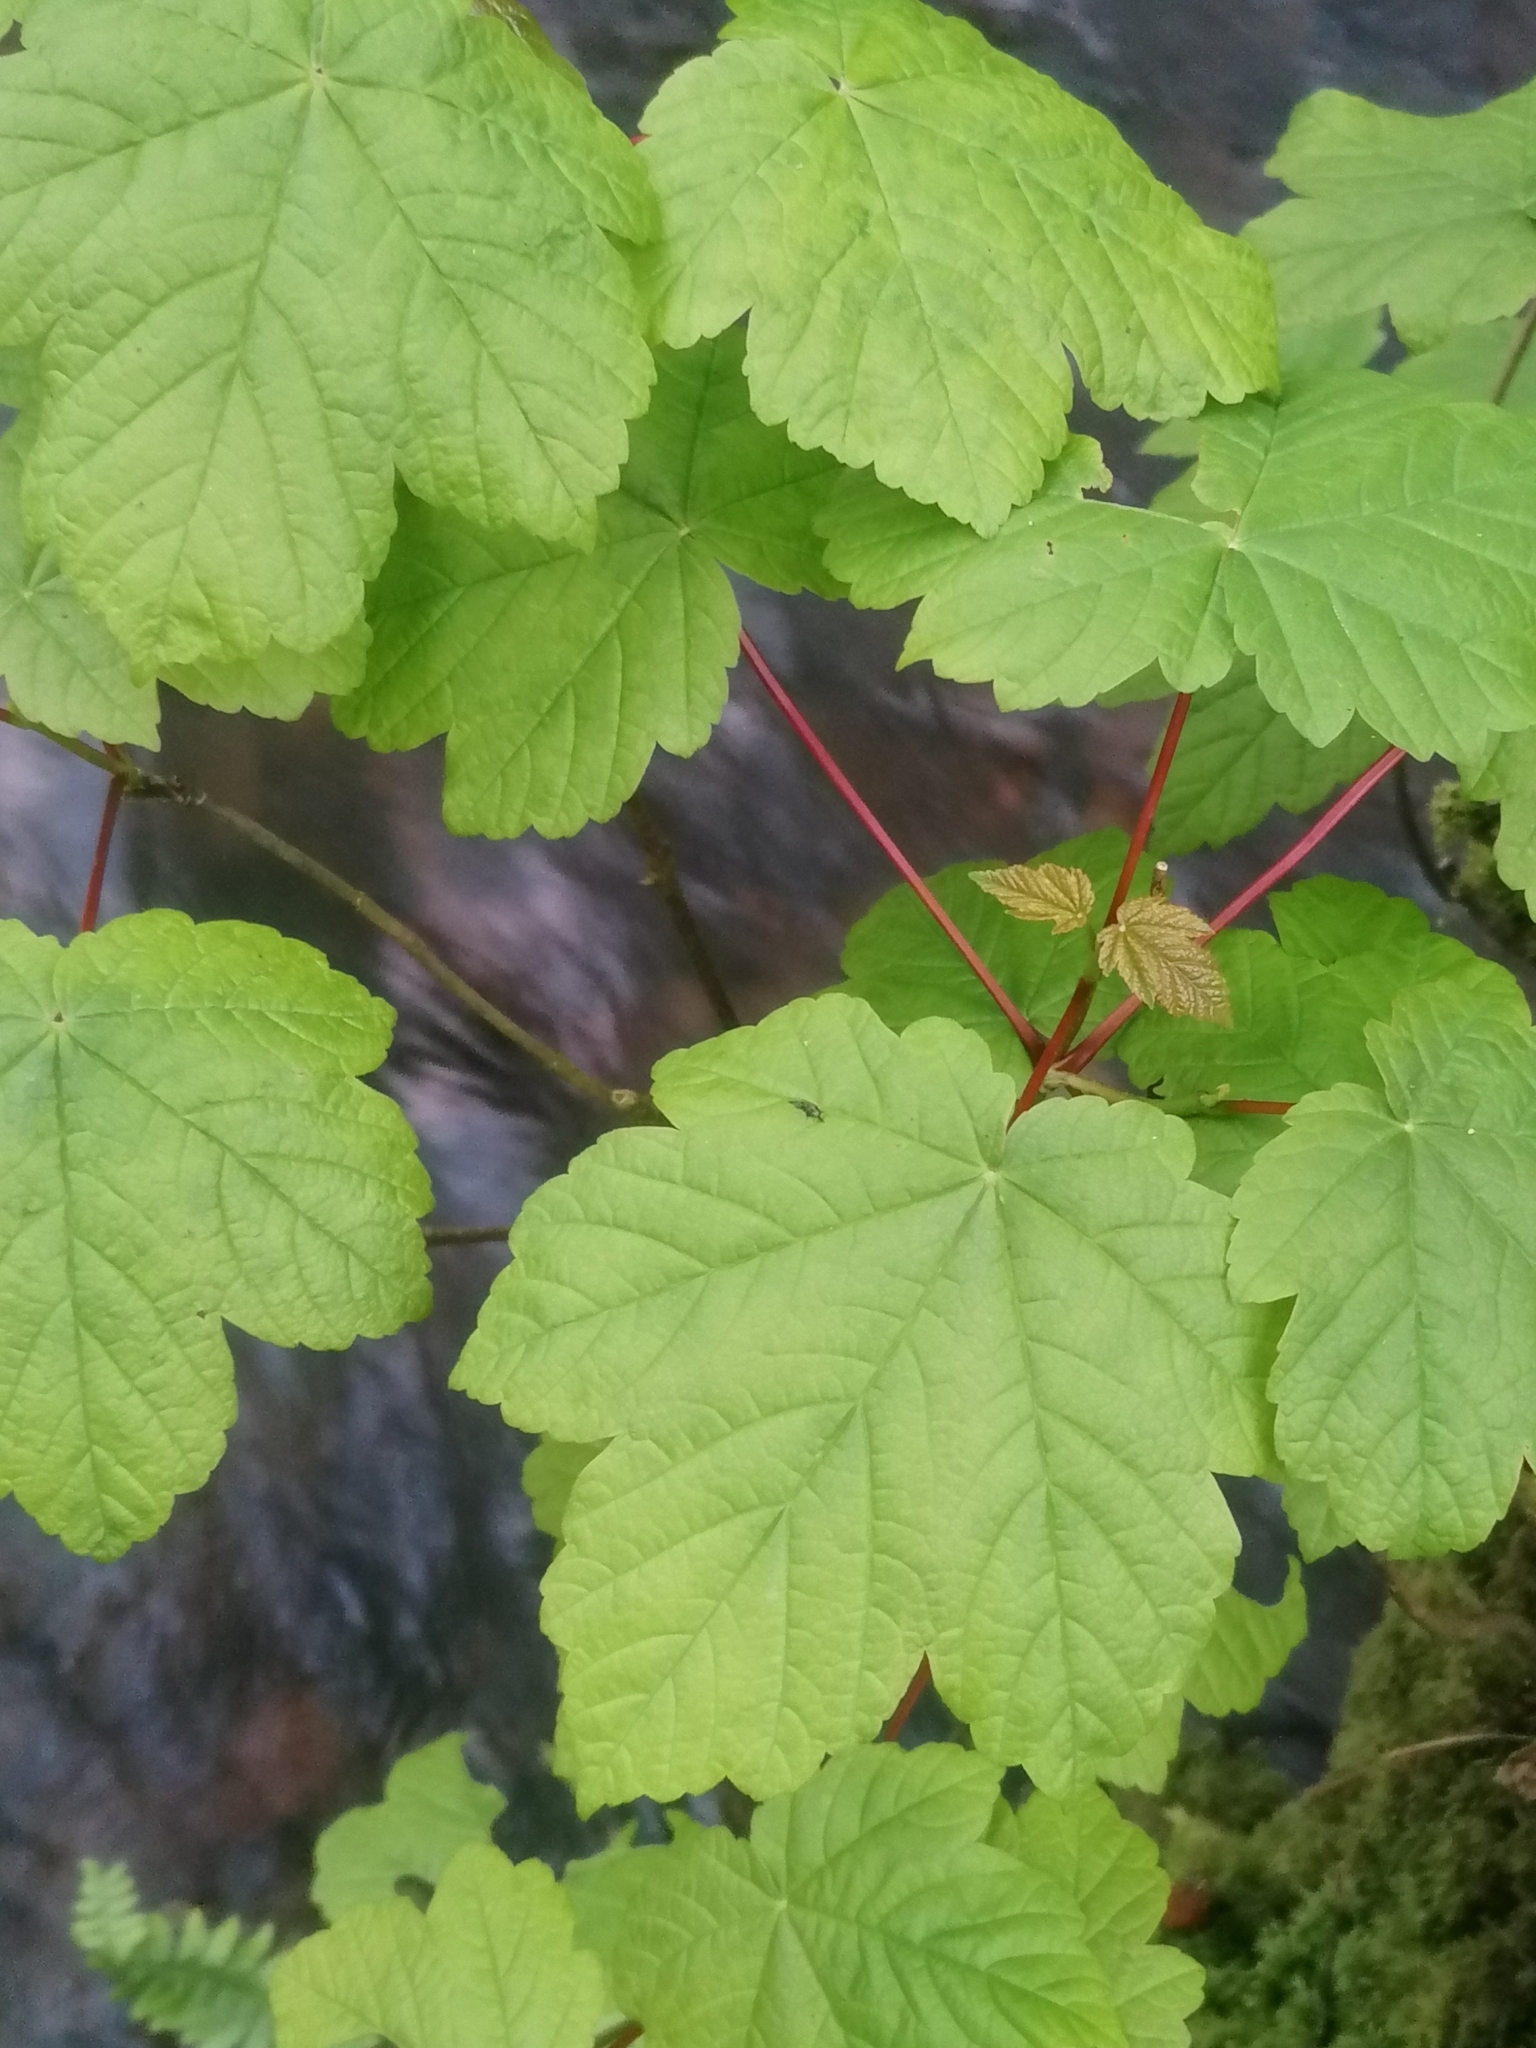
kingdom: Plantae
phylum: Tracheophyta
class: Magnoliopsida
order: Sapindales
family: Sapindaceae
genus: Acer
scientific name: Acer pseudoplatanus
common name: Sycamore
